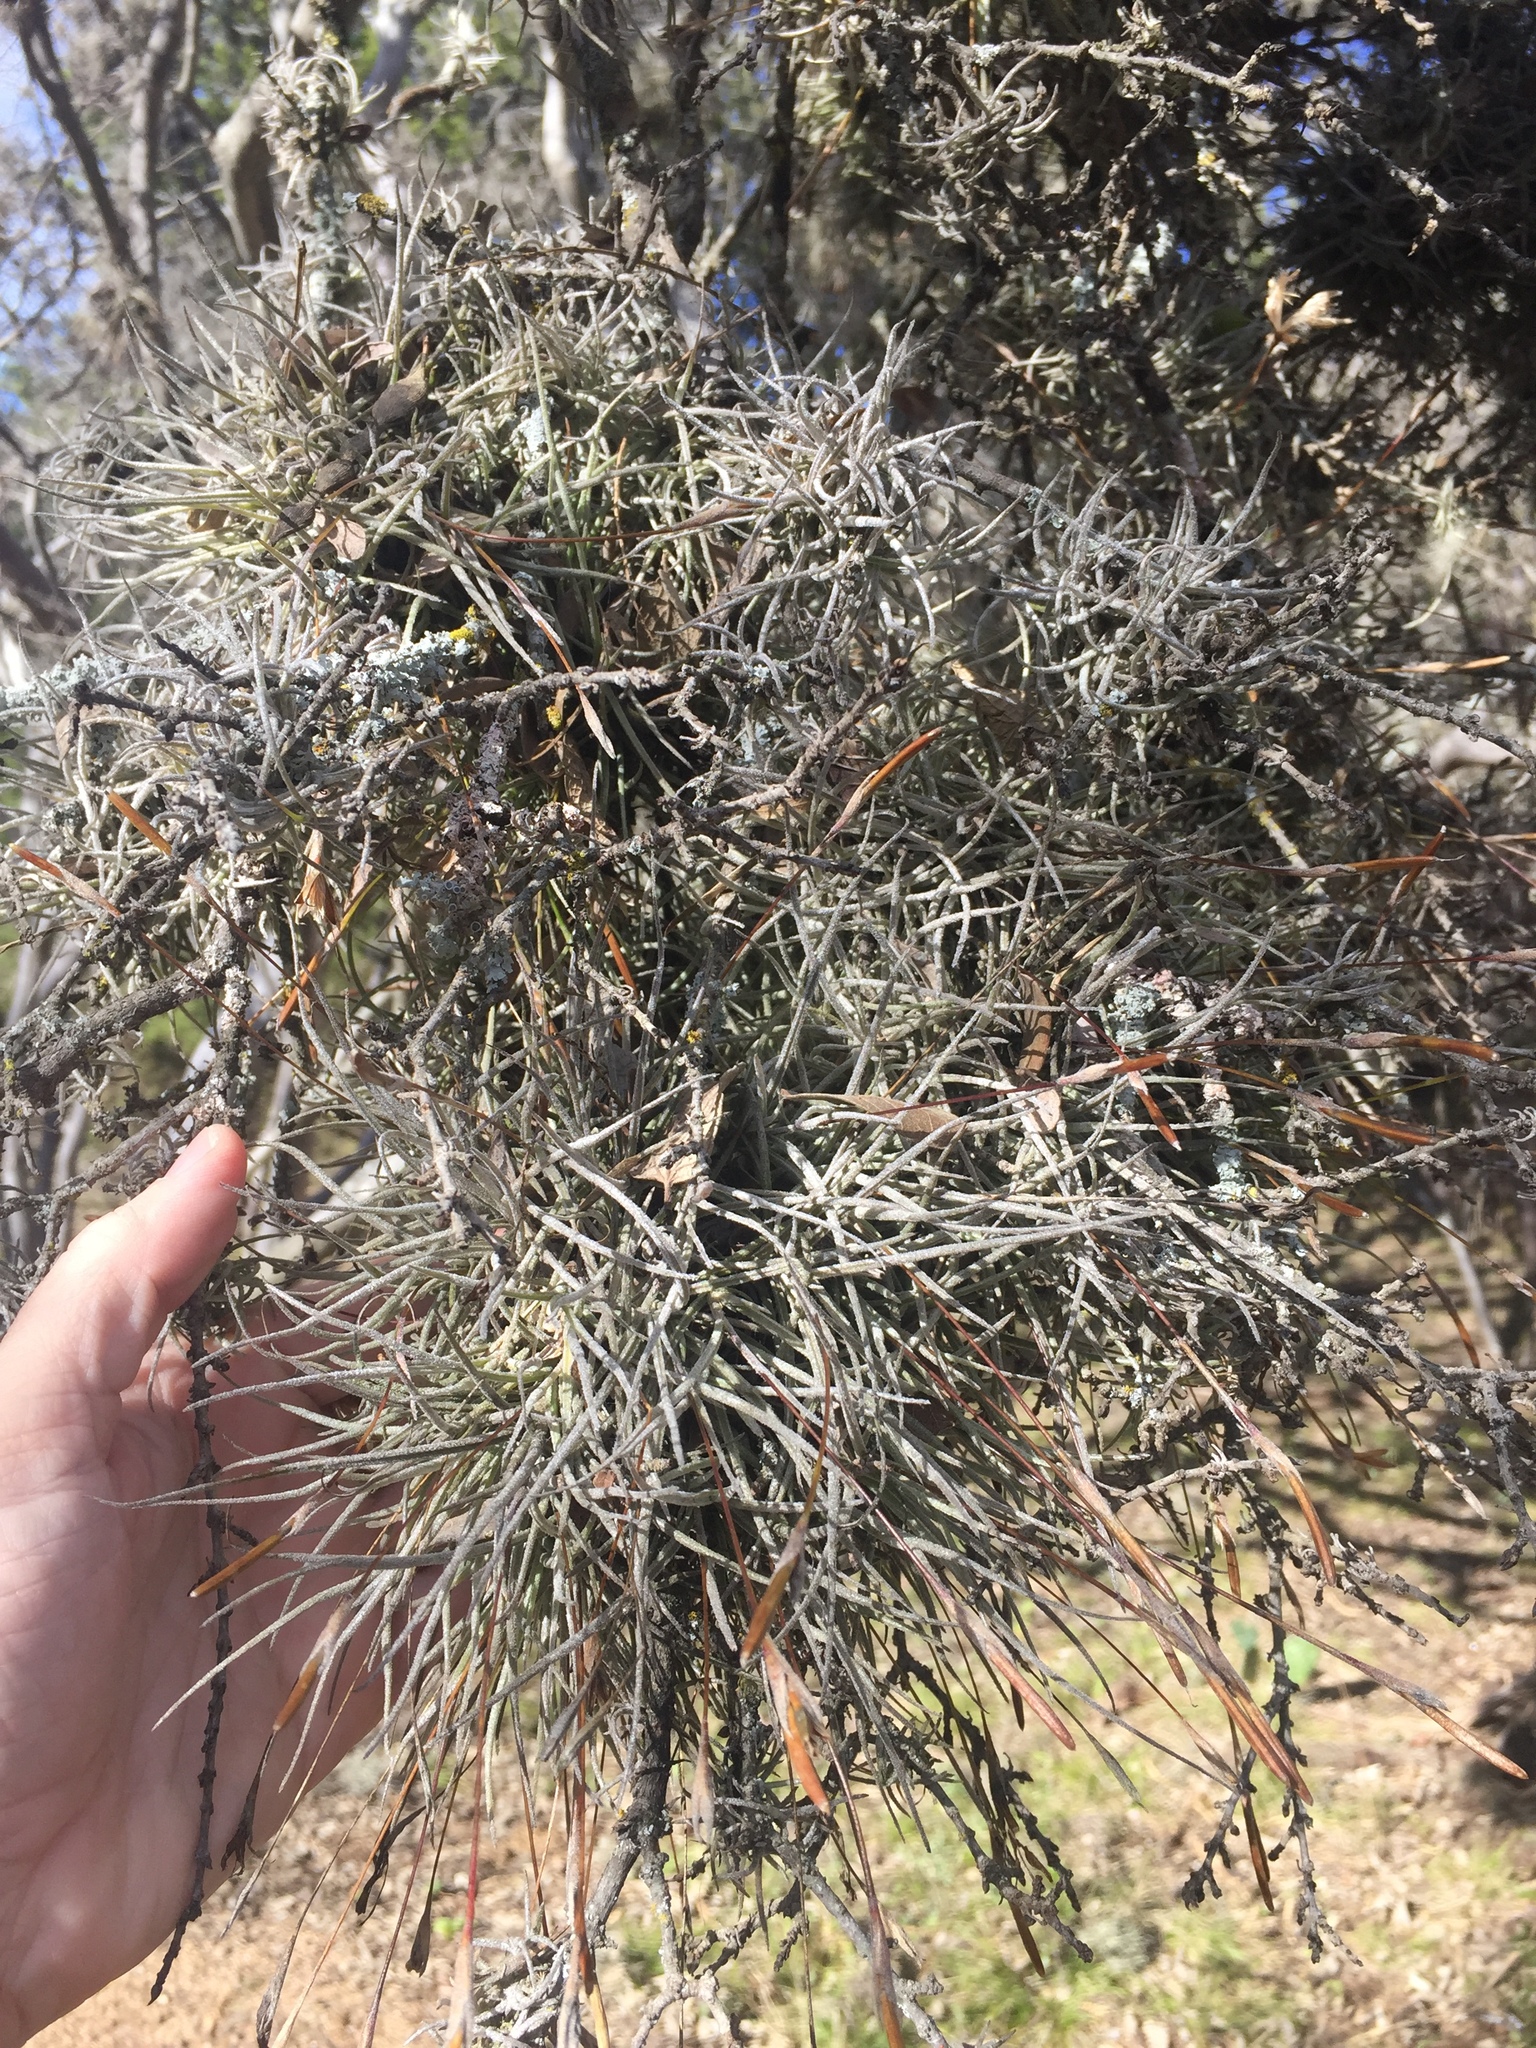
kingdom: Plantae
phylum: Tracheophyta
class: Liliopsida
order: Poales
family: Bromeliaceae
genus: Tillandsia
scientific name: Tillandsia recurvata
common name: Small ballmoss
